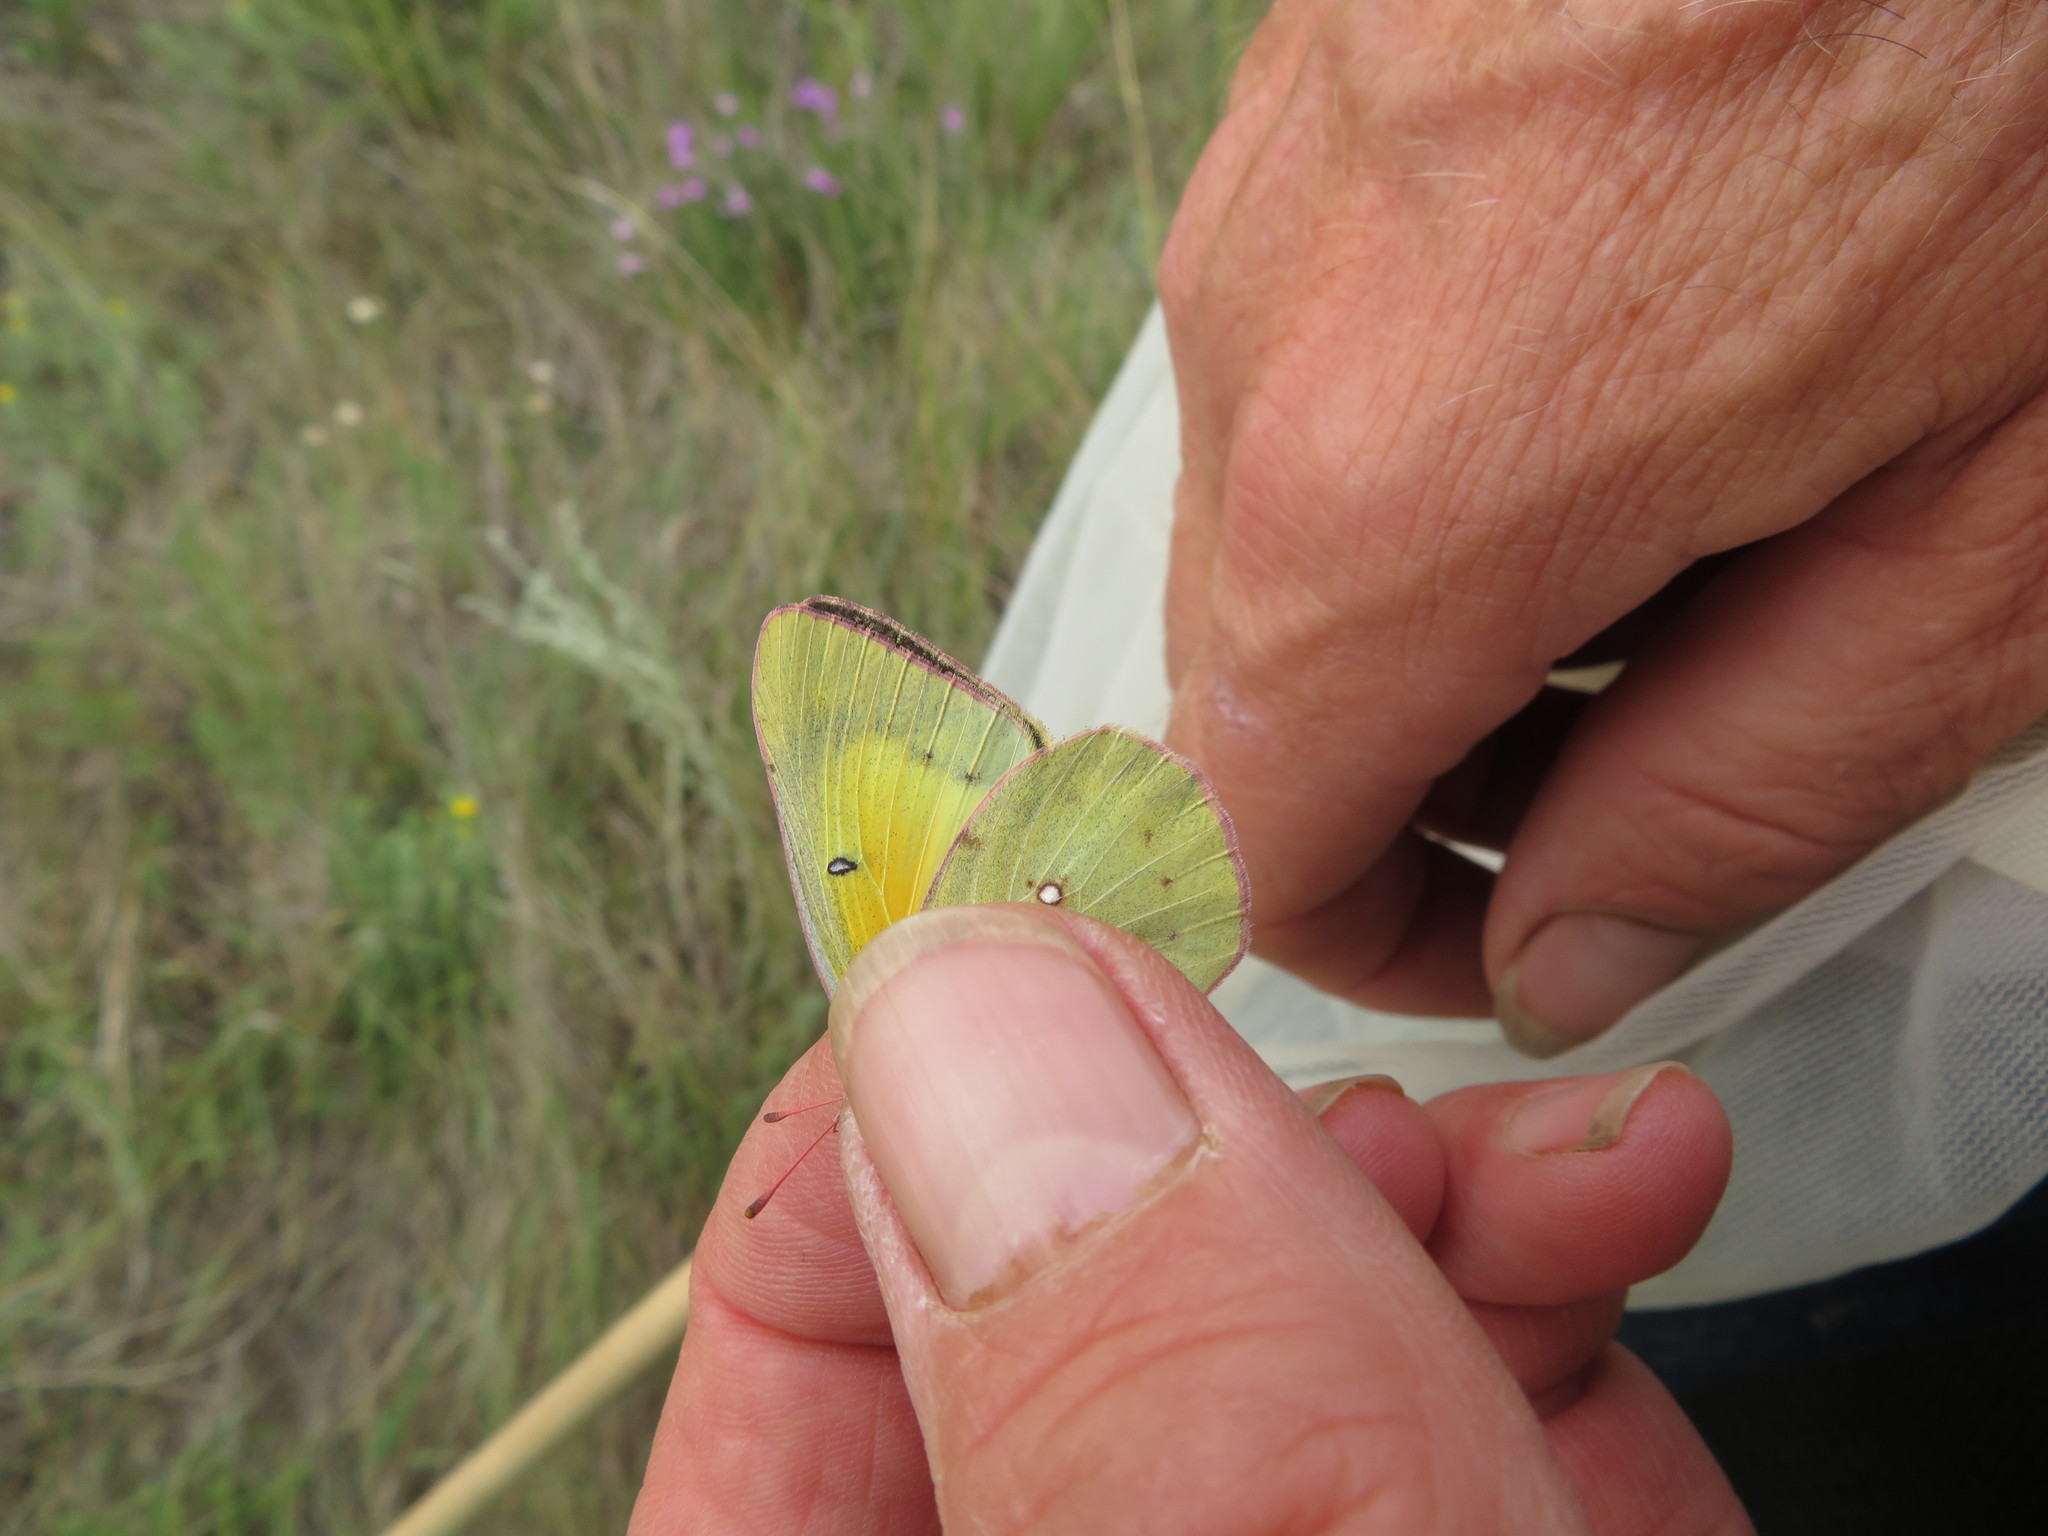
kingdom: Animalia
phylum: Arthropoda
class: Insecta
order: Lepidoptera
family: Pieridae
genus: Colias
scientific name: Colias eurytheme
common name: Alfalfa butterfly
